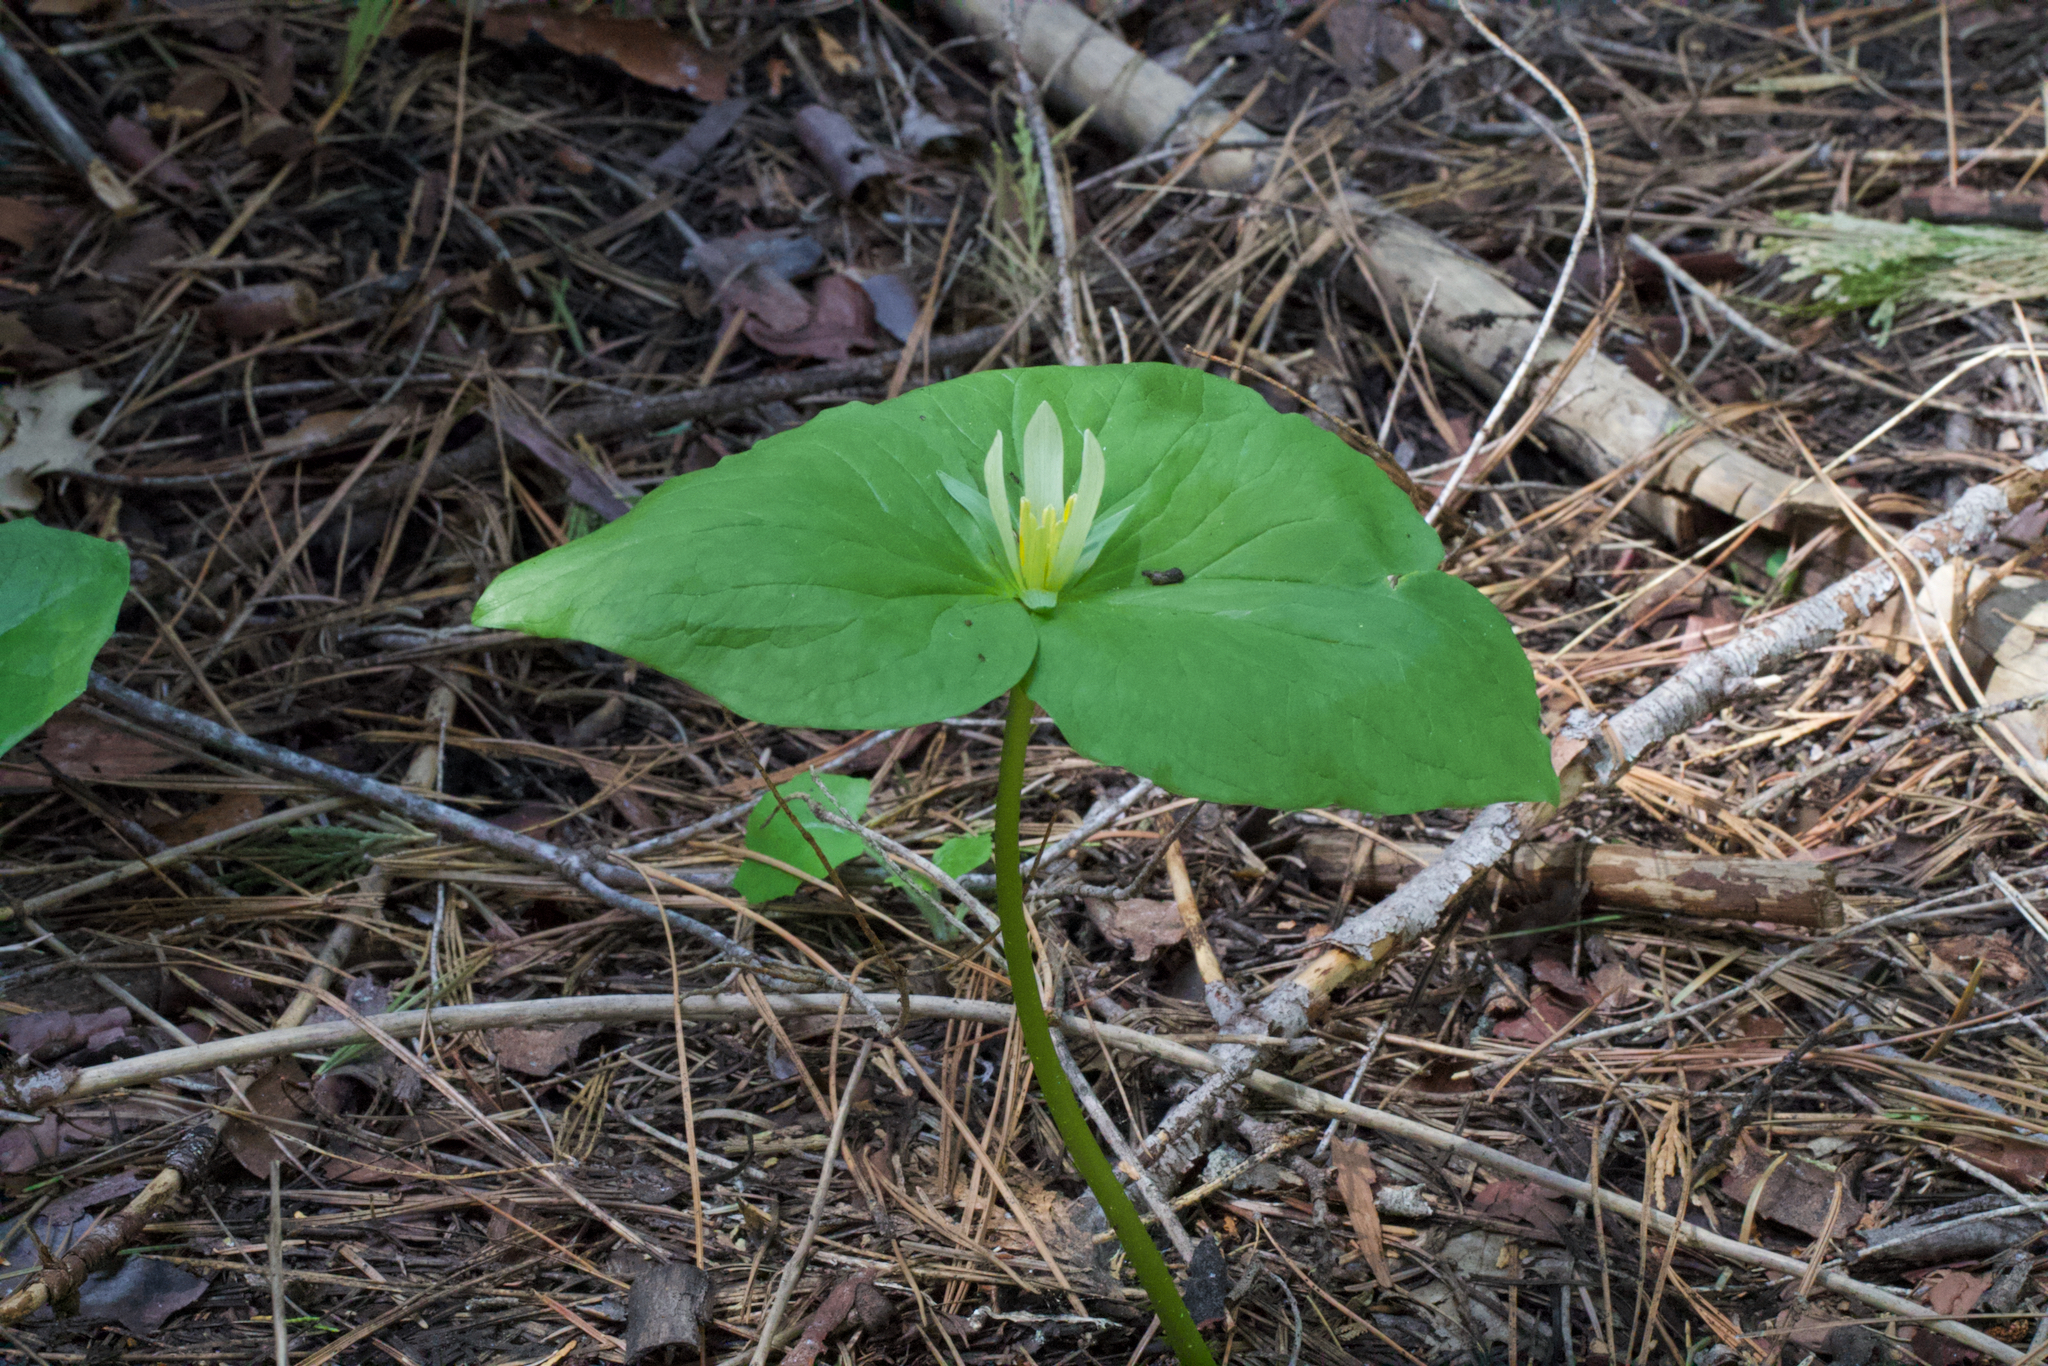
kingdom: Plantae
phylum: Tracheophyta
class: Liliopsida
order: Liliales
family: Melanthiaceae
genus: Trillium
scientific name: Trillium albidum
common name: Freeman's trillium
